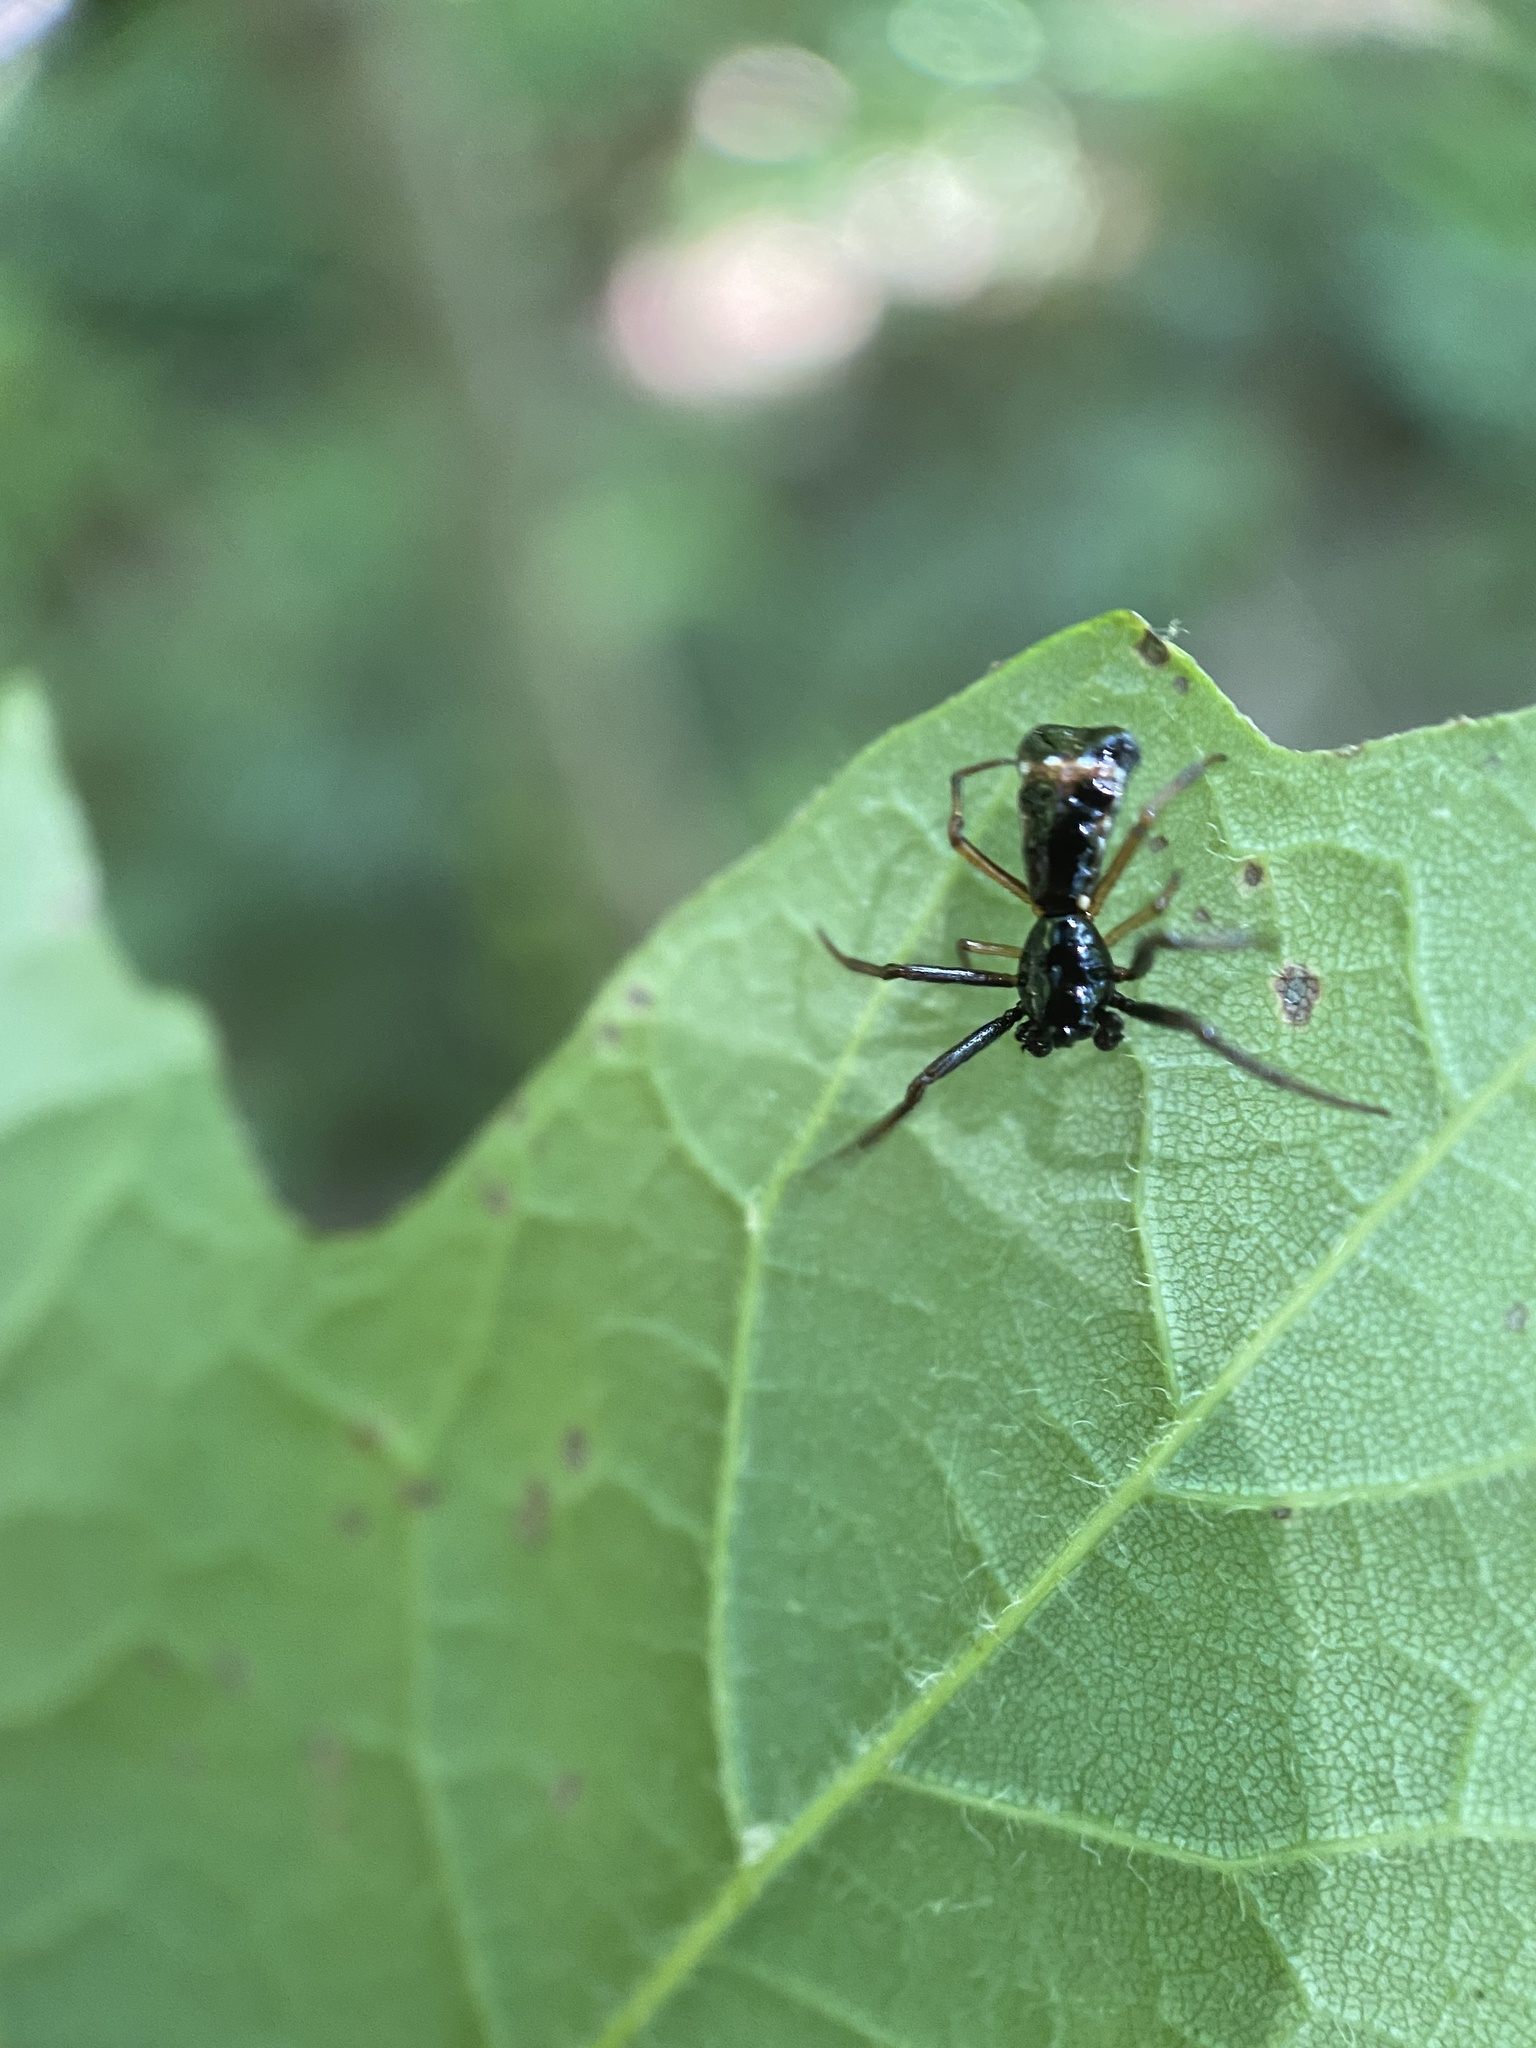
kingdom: Animalia
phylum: Arthropoda
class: Arachnida
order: Araneae
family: Araneidae
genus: Micrathena
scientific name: Micrathena sagittata
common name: Orb weavers
